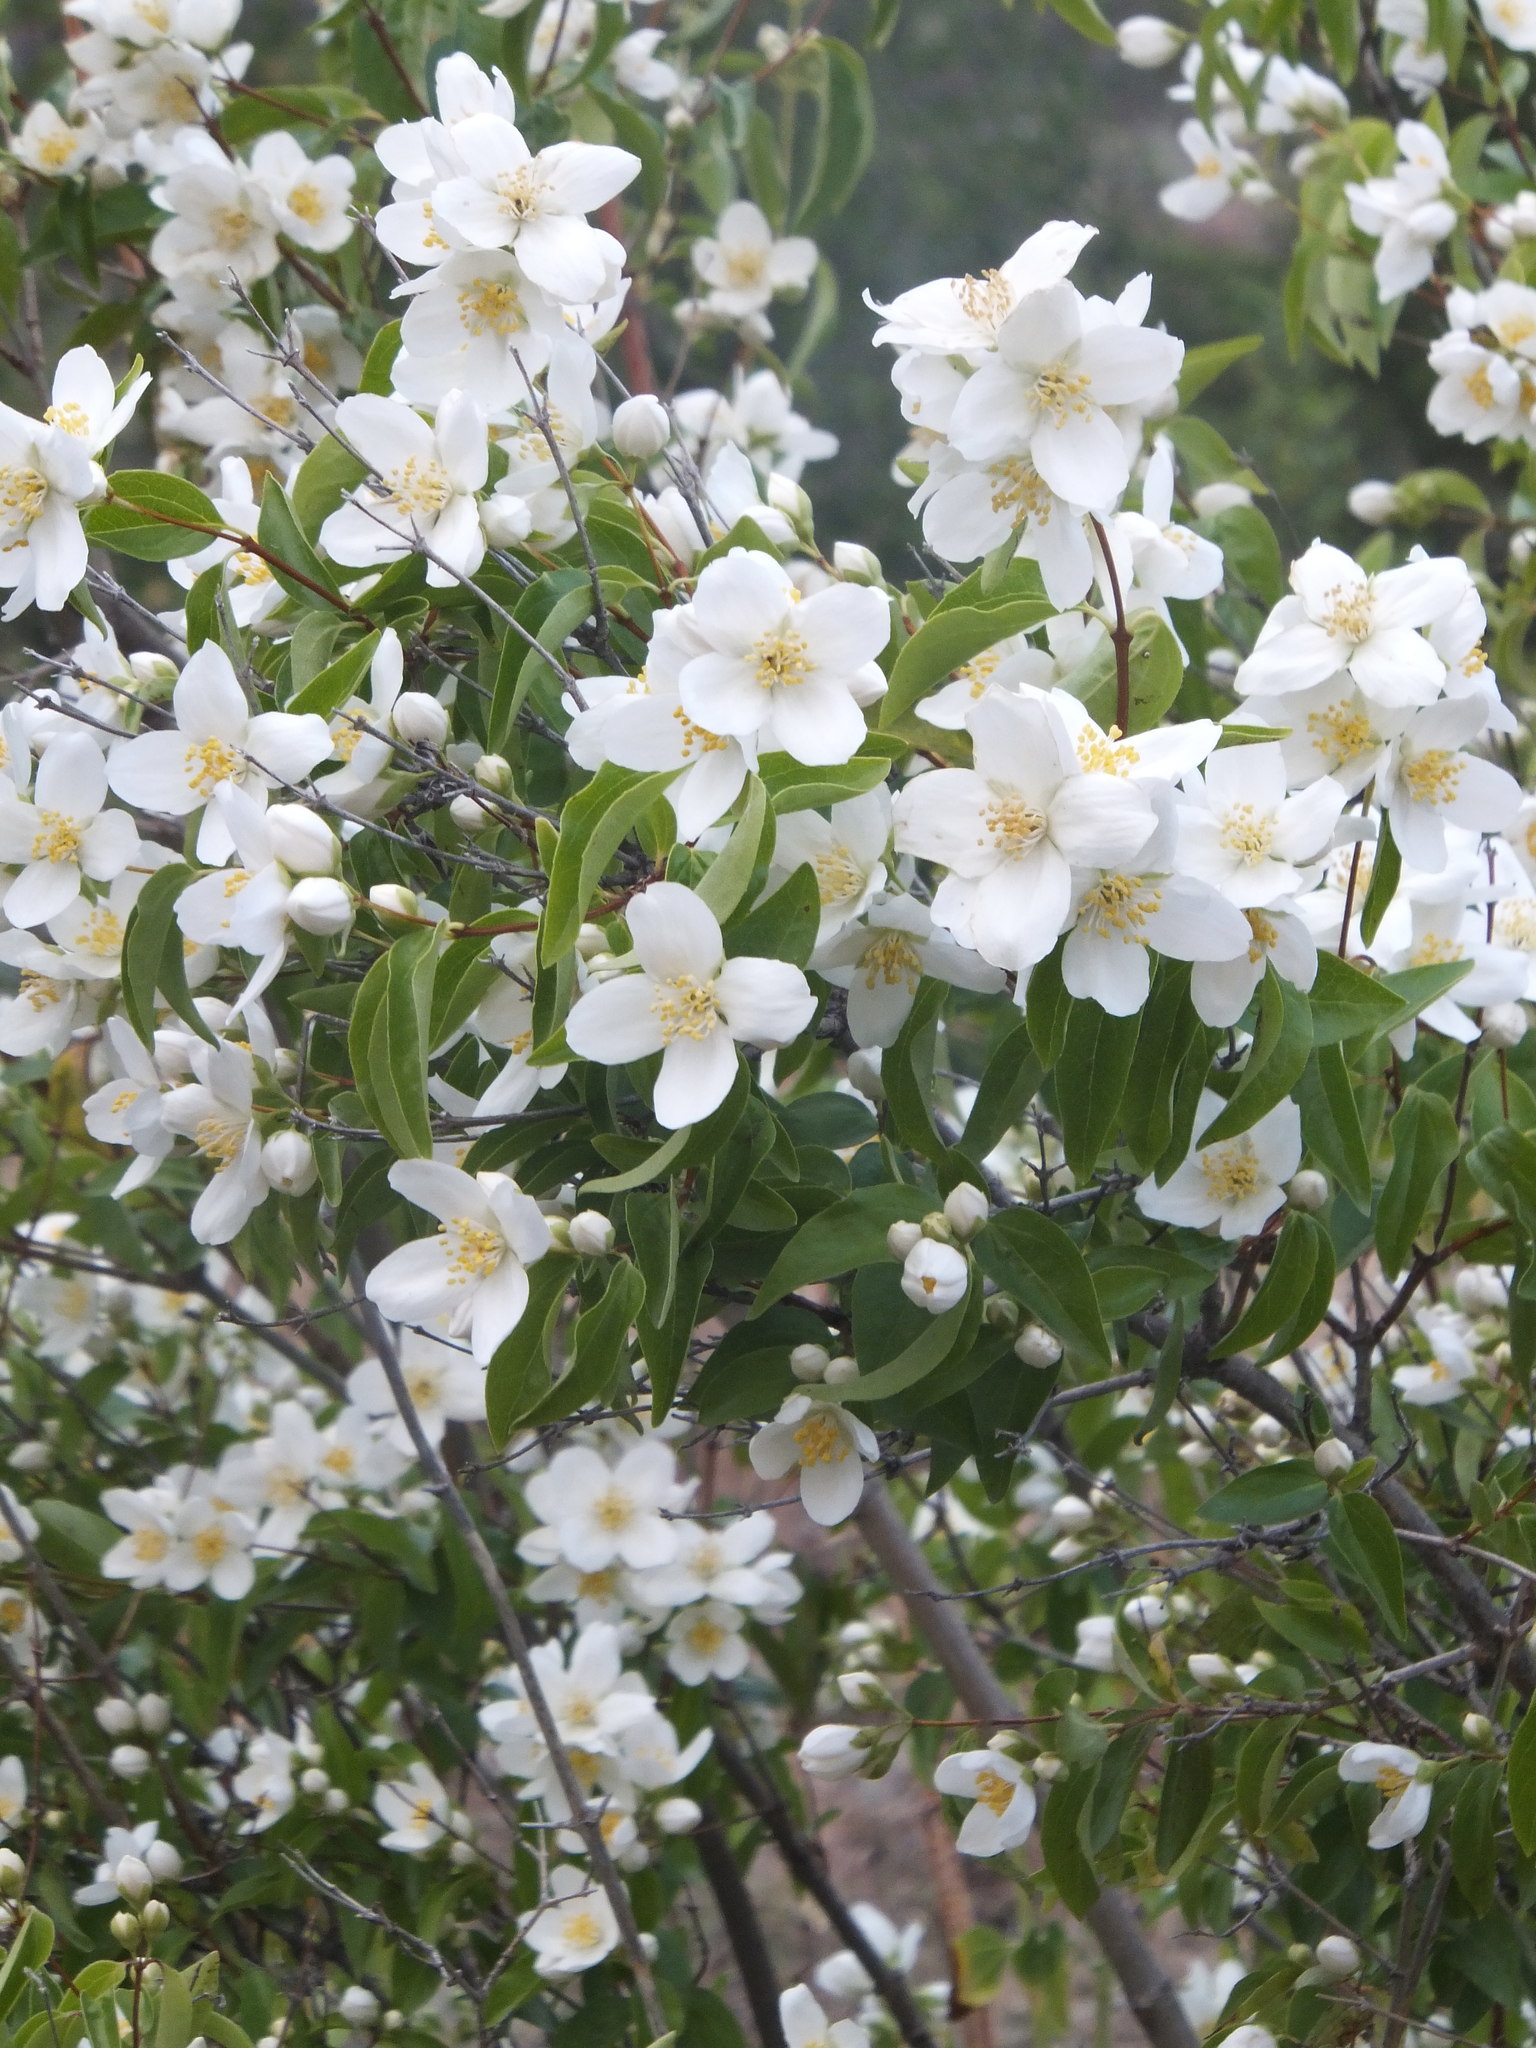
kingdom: Plantae
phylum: Tracheophyta
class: Magnoliopsida
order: Cornales
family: Hydrangeaceae
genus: Philadelphus
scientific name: Philadelphus lewisii
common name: Lewis's mock orange
